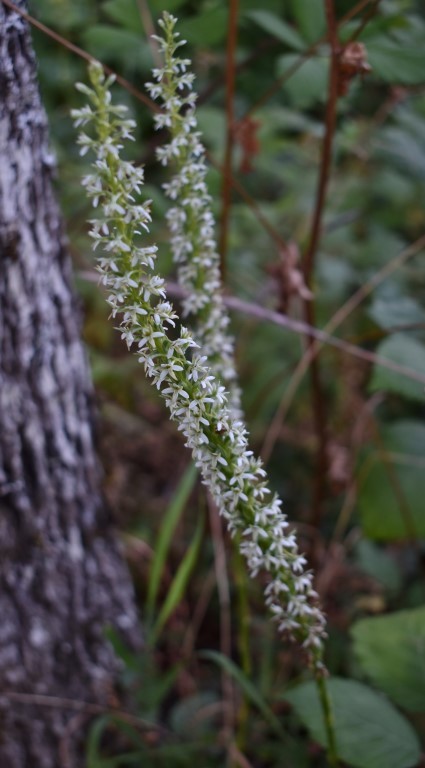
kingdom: Plantae
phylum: Tracheophyta
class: Liliopsida
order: Asparagales
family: Orchidaceae
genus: Platanthera
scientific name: Platanthera elegans
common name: Coast piperia
